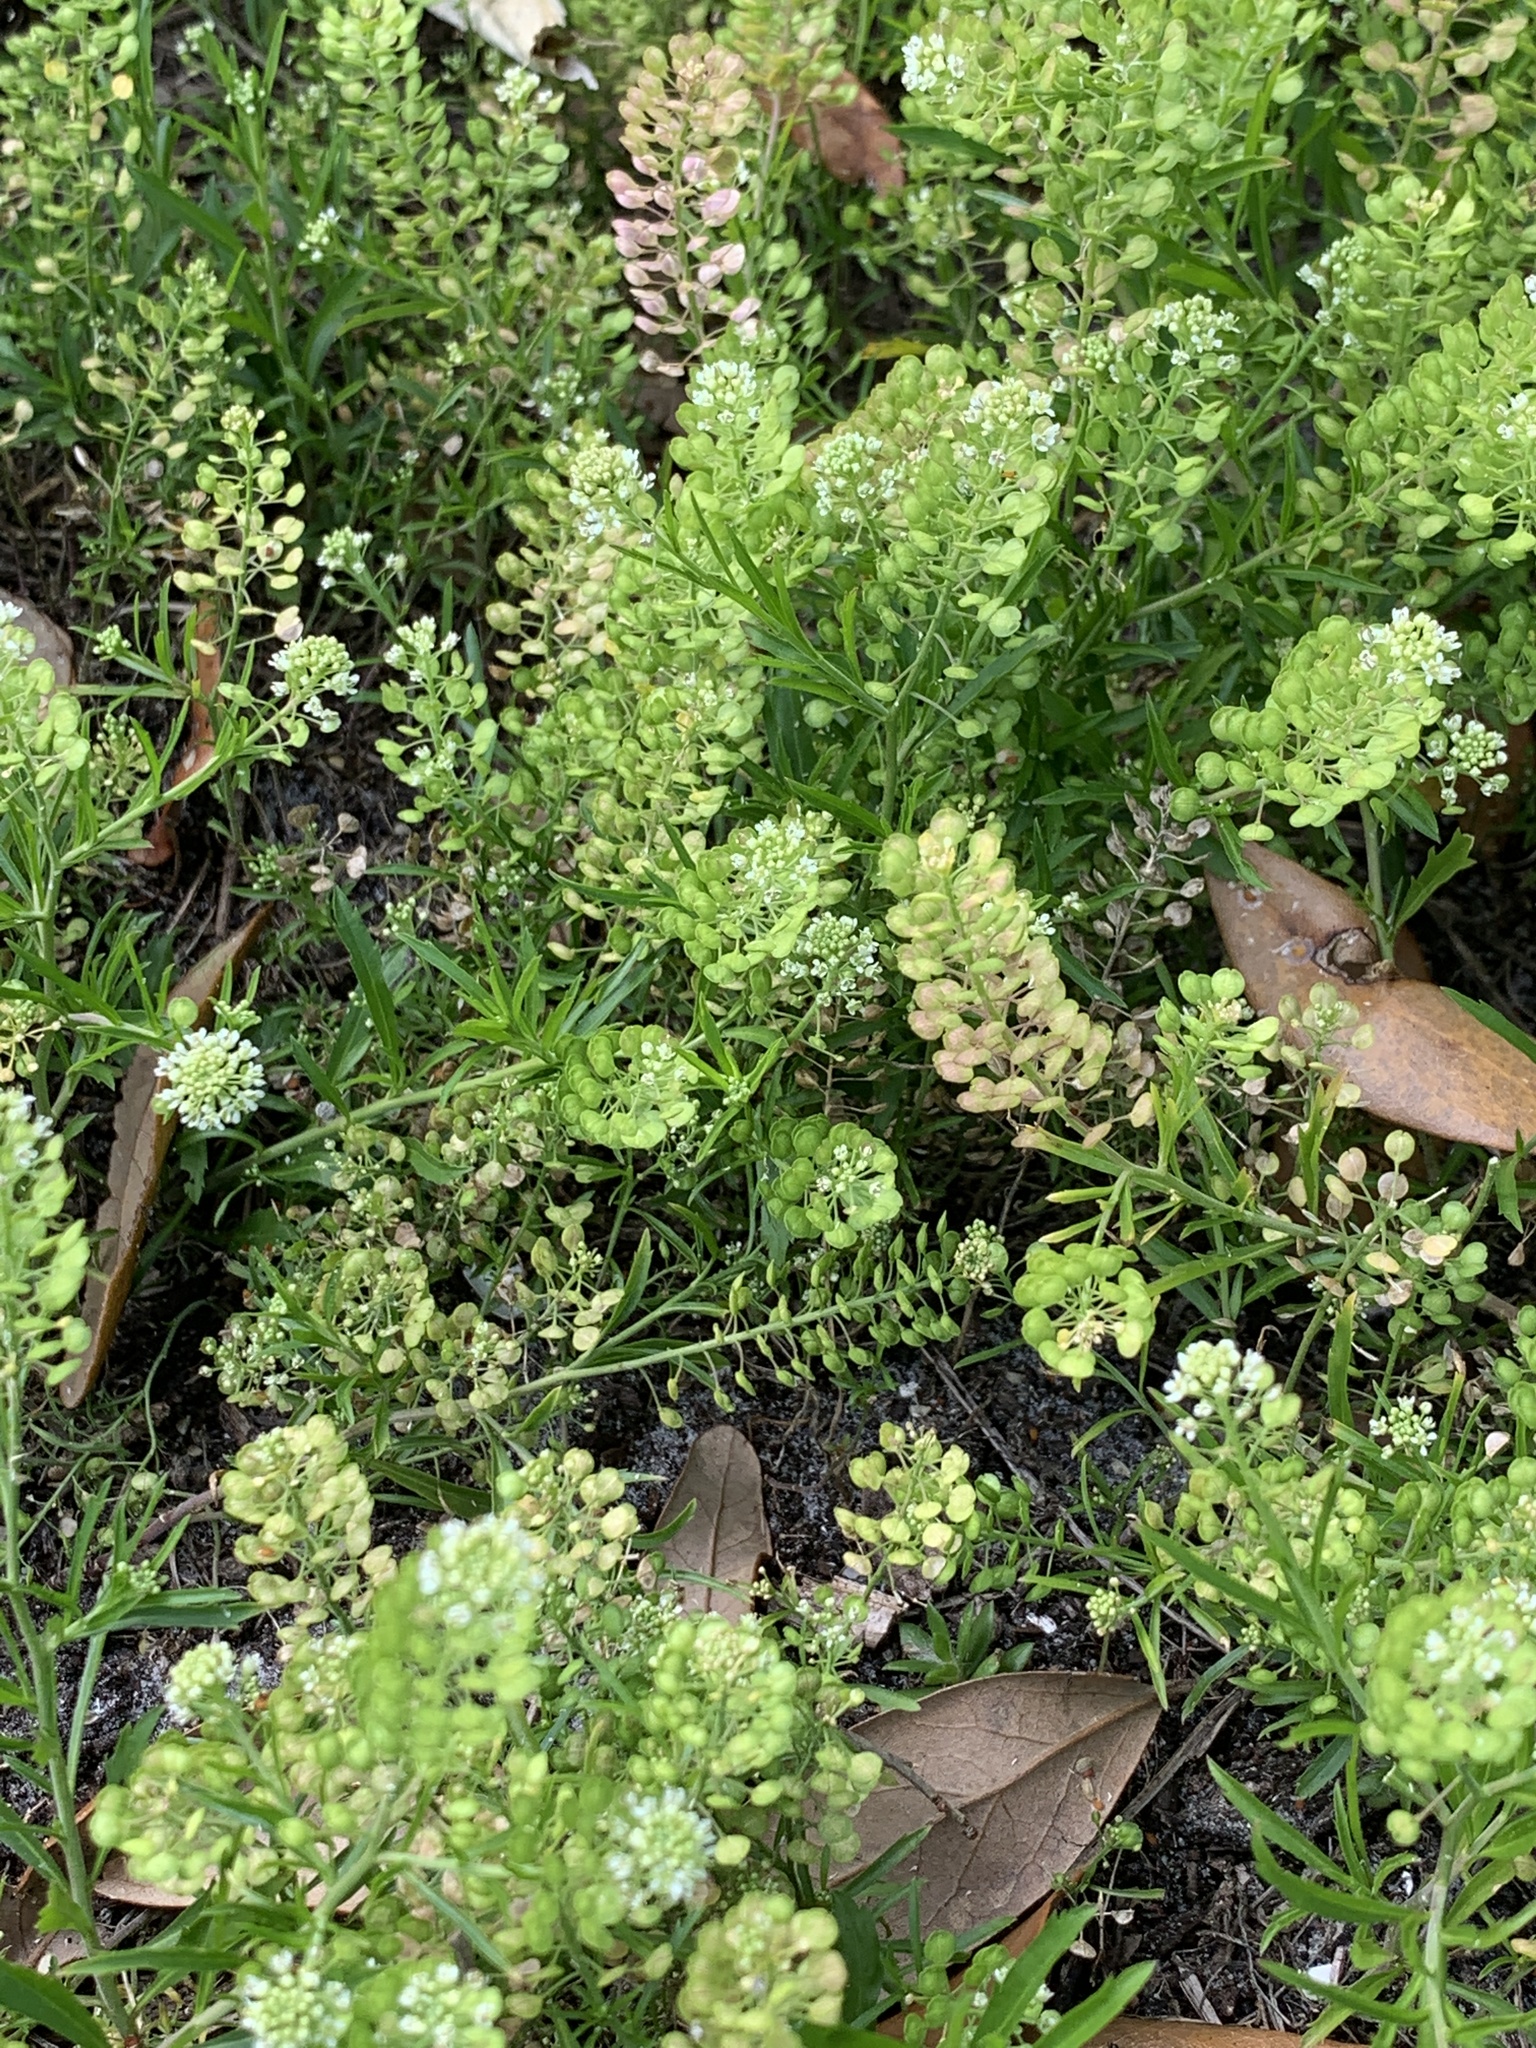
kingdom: Plantae
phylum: Tracheophyta
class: Magnoliopsida
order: Brassicales
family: Brassicaceae
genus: Lepidium
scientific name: Lepidium virginicum
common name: Least pepperwort
